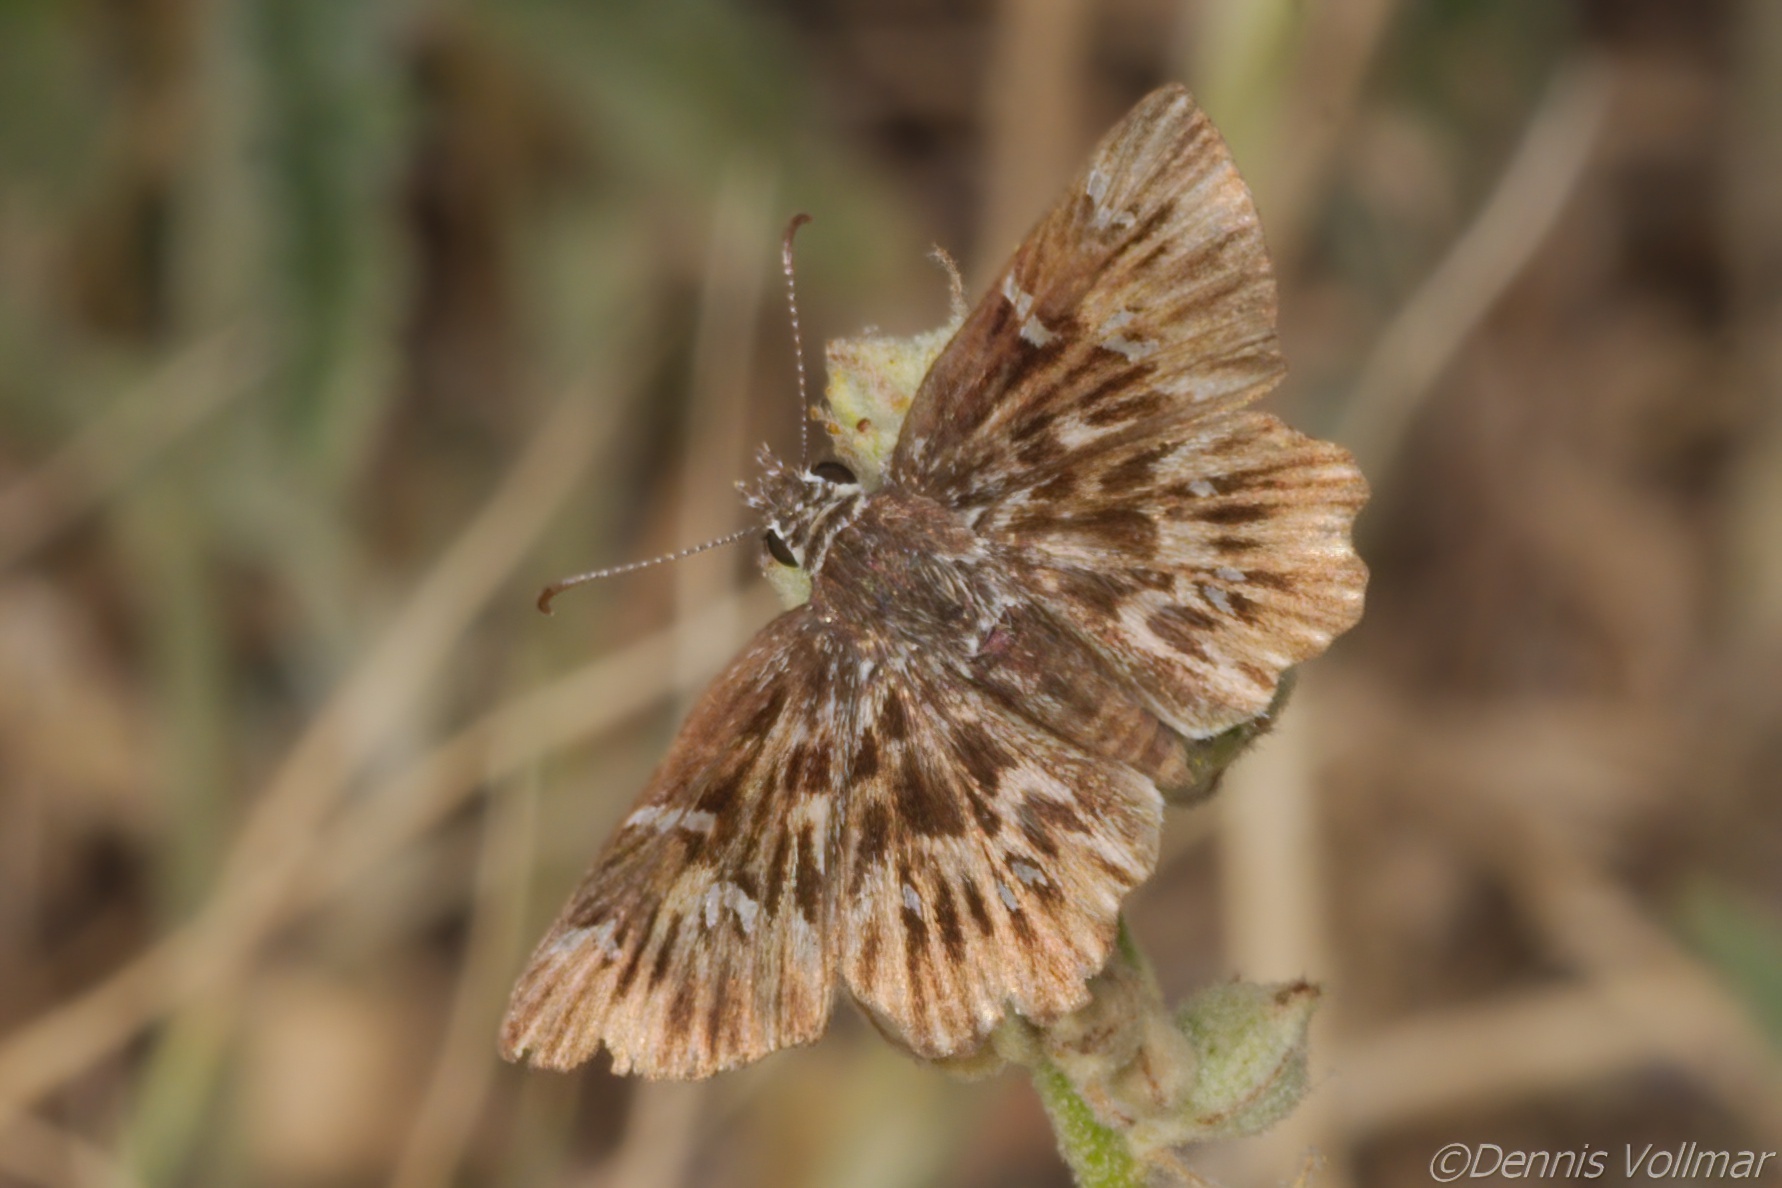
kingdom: Animalia
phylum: Arthropoda
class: Insecta
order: Lepidoptera
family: Hesperiidae
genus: Celotes
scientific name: Celotes limpia
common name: Scarce streaky-skipper
